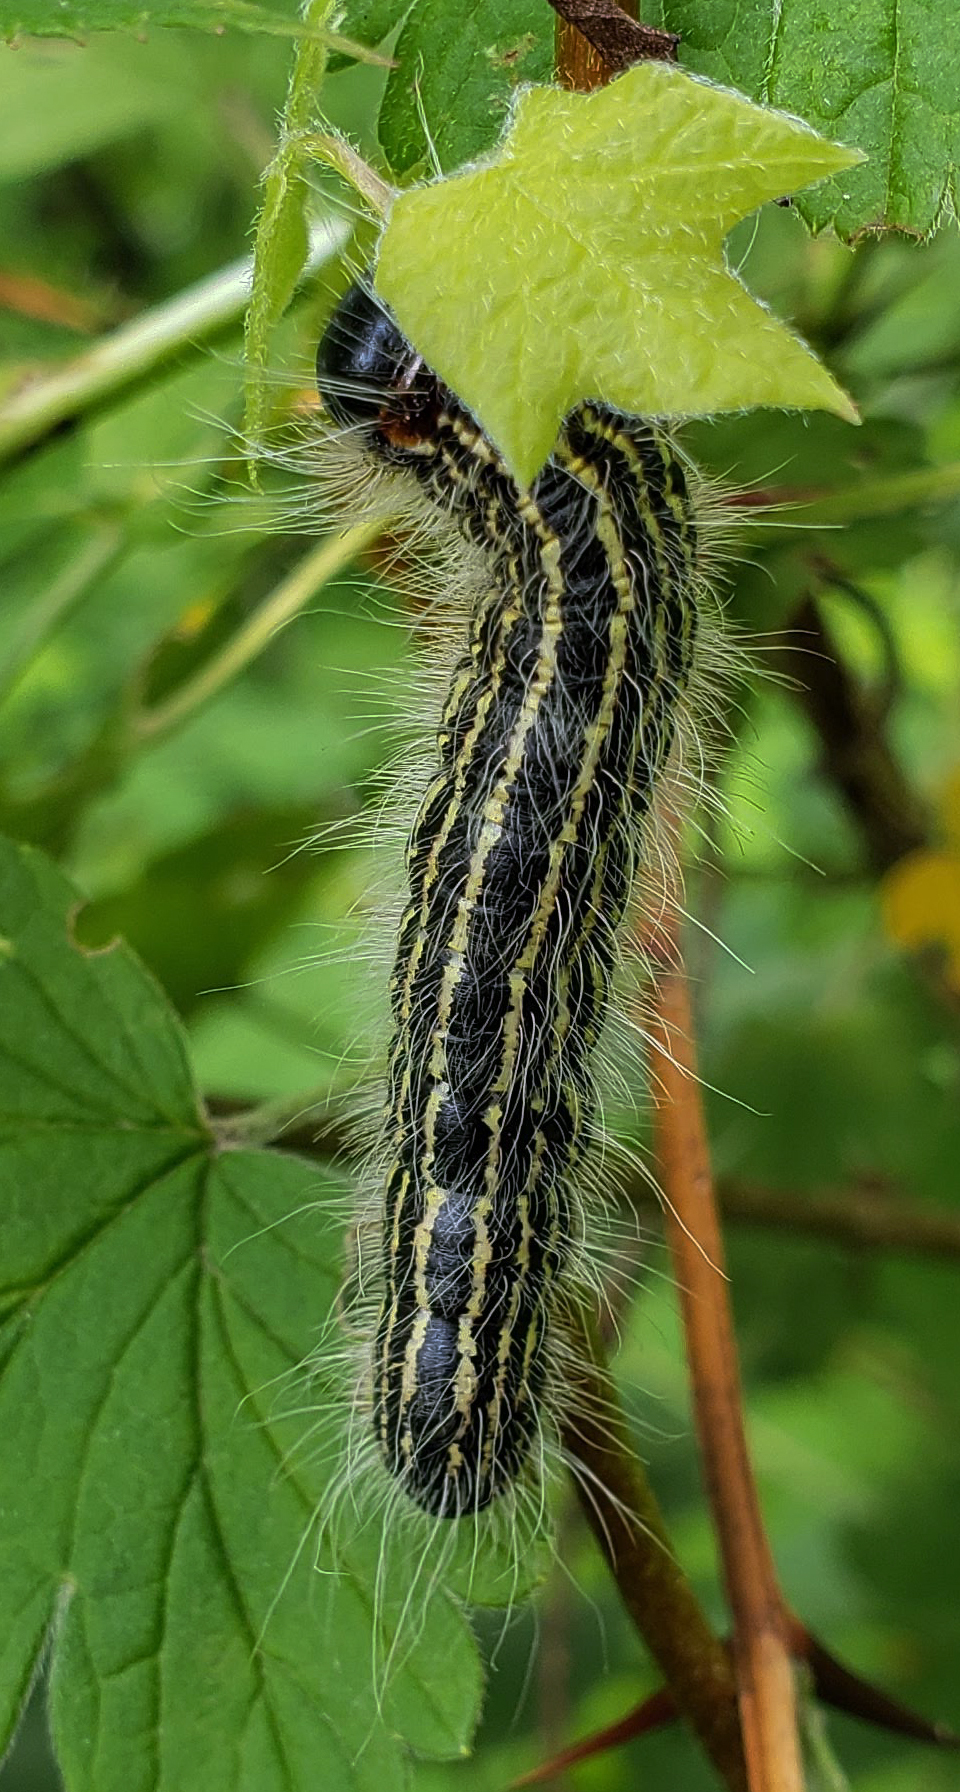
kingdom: Animalia
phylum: Arthropoda
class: Insecta
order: Lepidoptera
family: Notodontidae
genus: Datana
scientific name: Datana ministra
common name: Yellow-necked caterpillar moth
